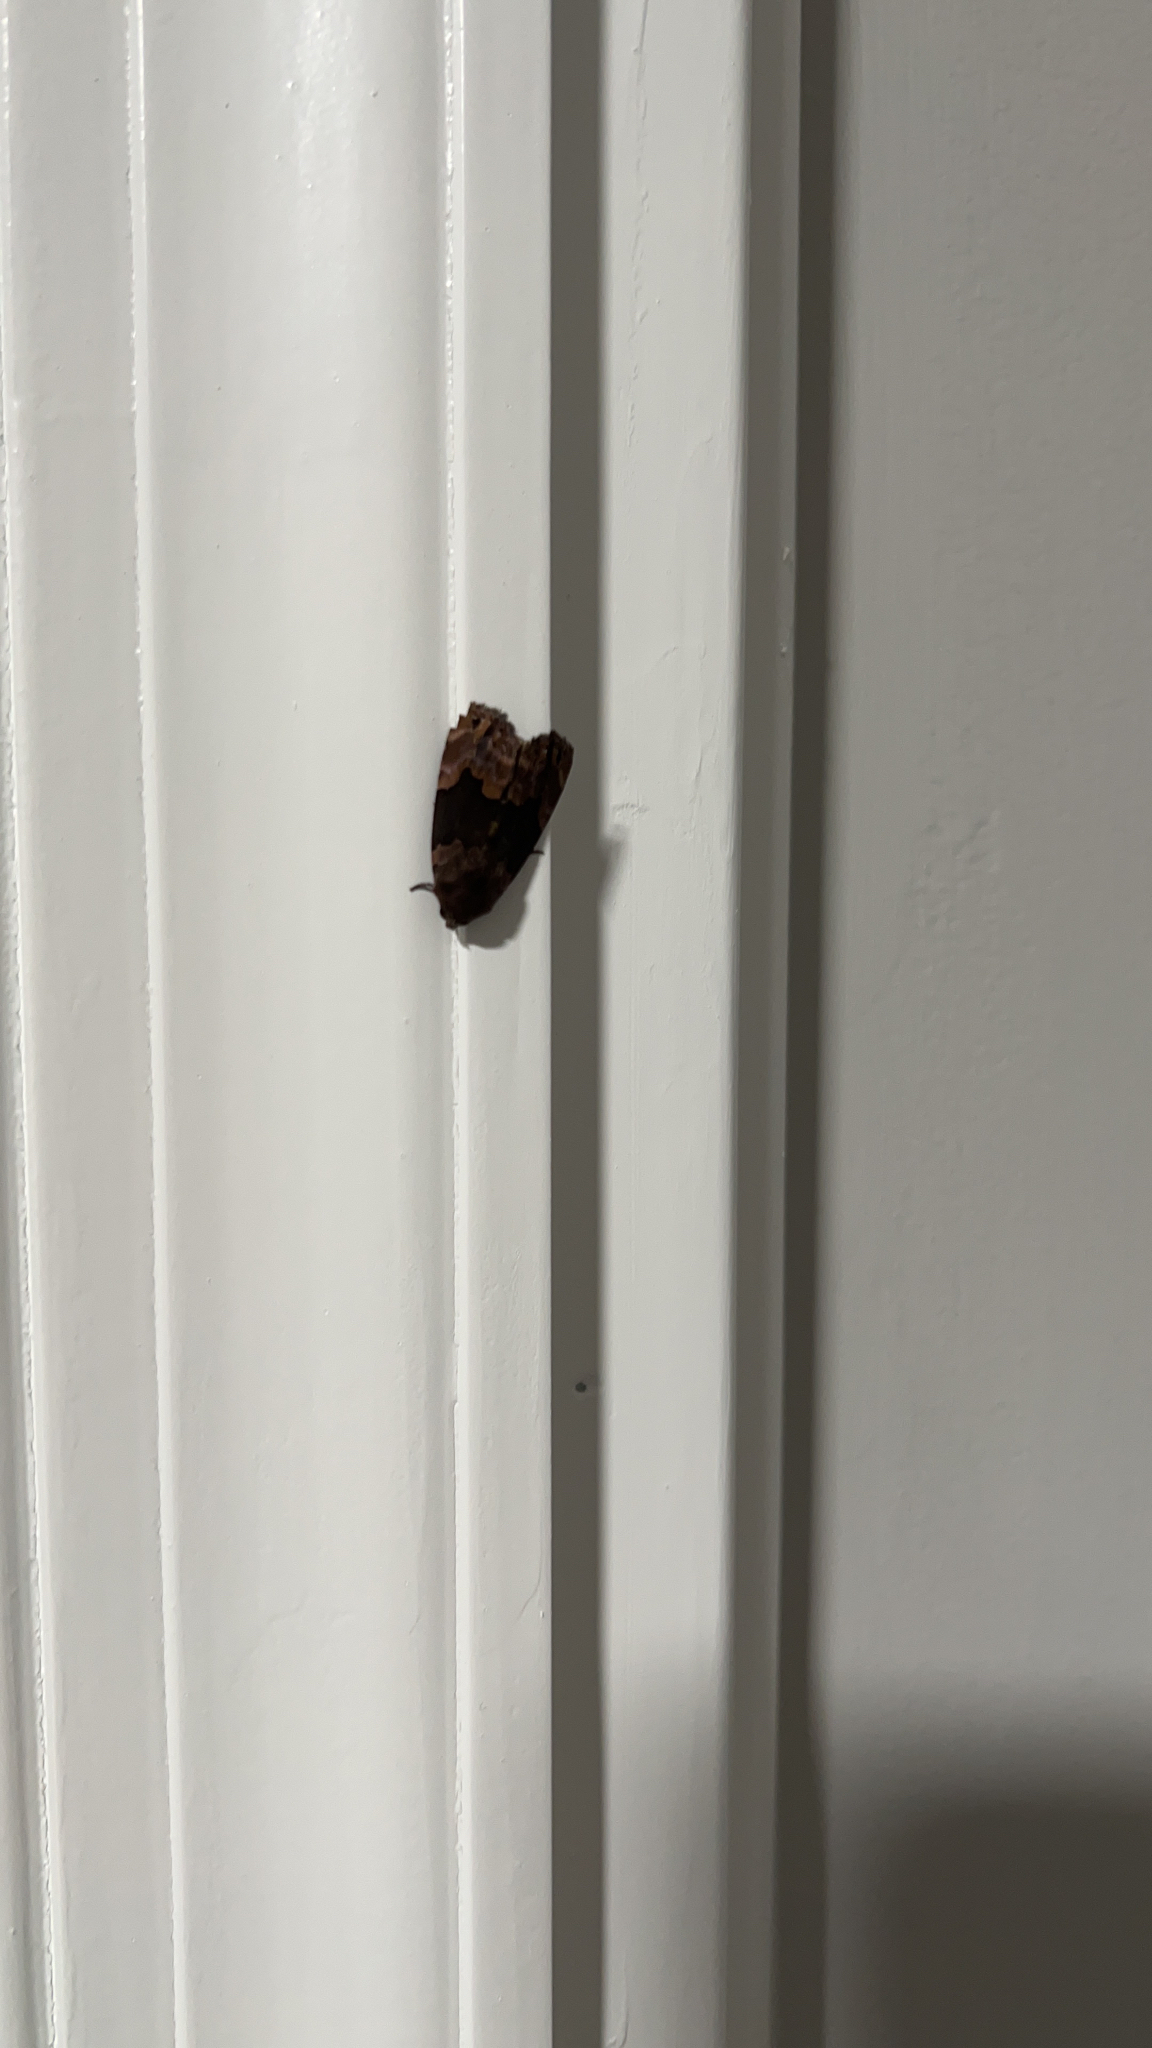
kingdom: Animalia
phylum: Arthropoda
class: Insecta
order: Lepidoptera
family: Erebidae
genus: Dinumma
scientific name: Dinumma deponens
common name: Purplish moth
